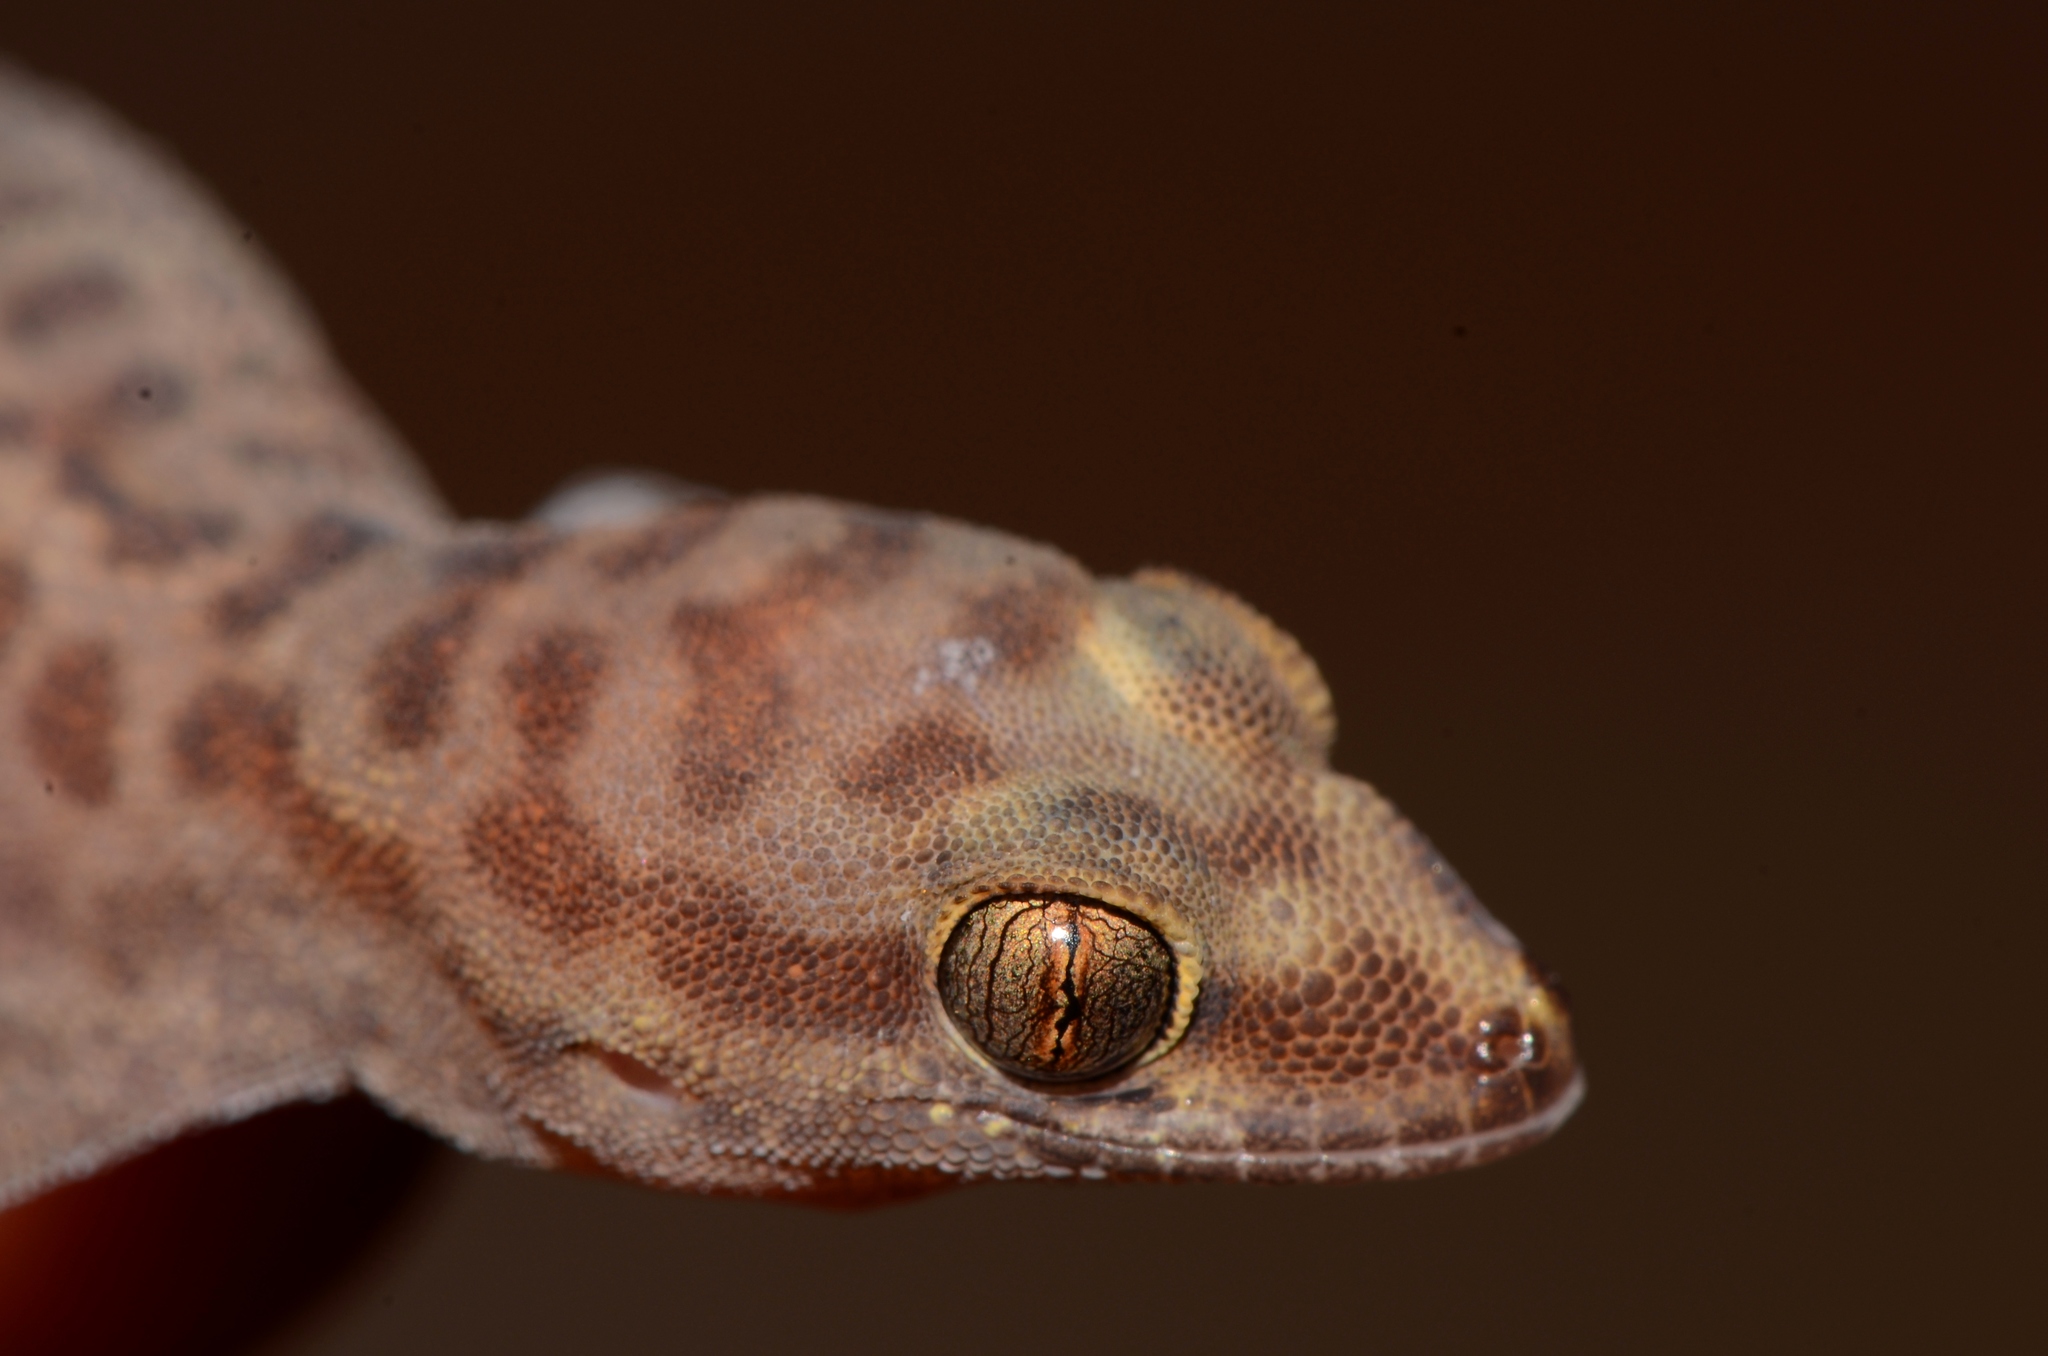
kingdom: Animalia
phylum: Chordata
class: Squamata
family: Gekkonidae
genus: Pachydactylus
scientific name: Pachydactylus montanus
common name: Montane thick-toed gecko
